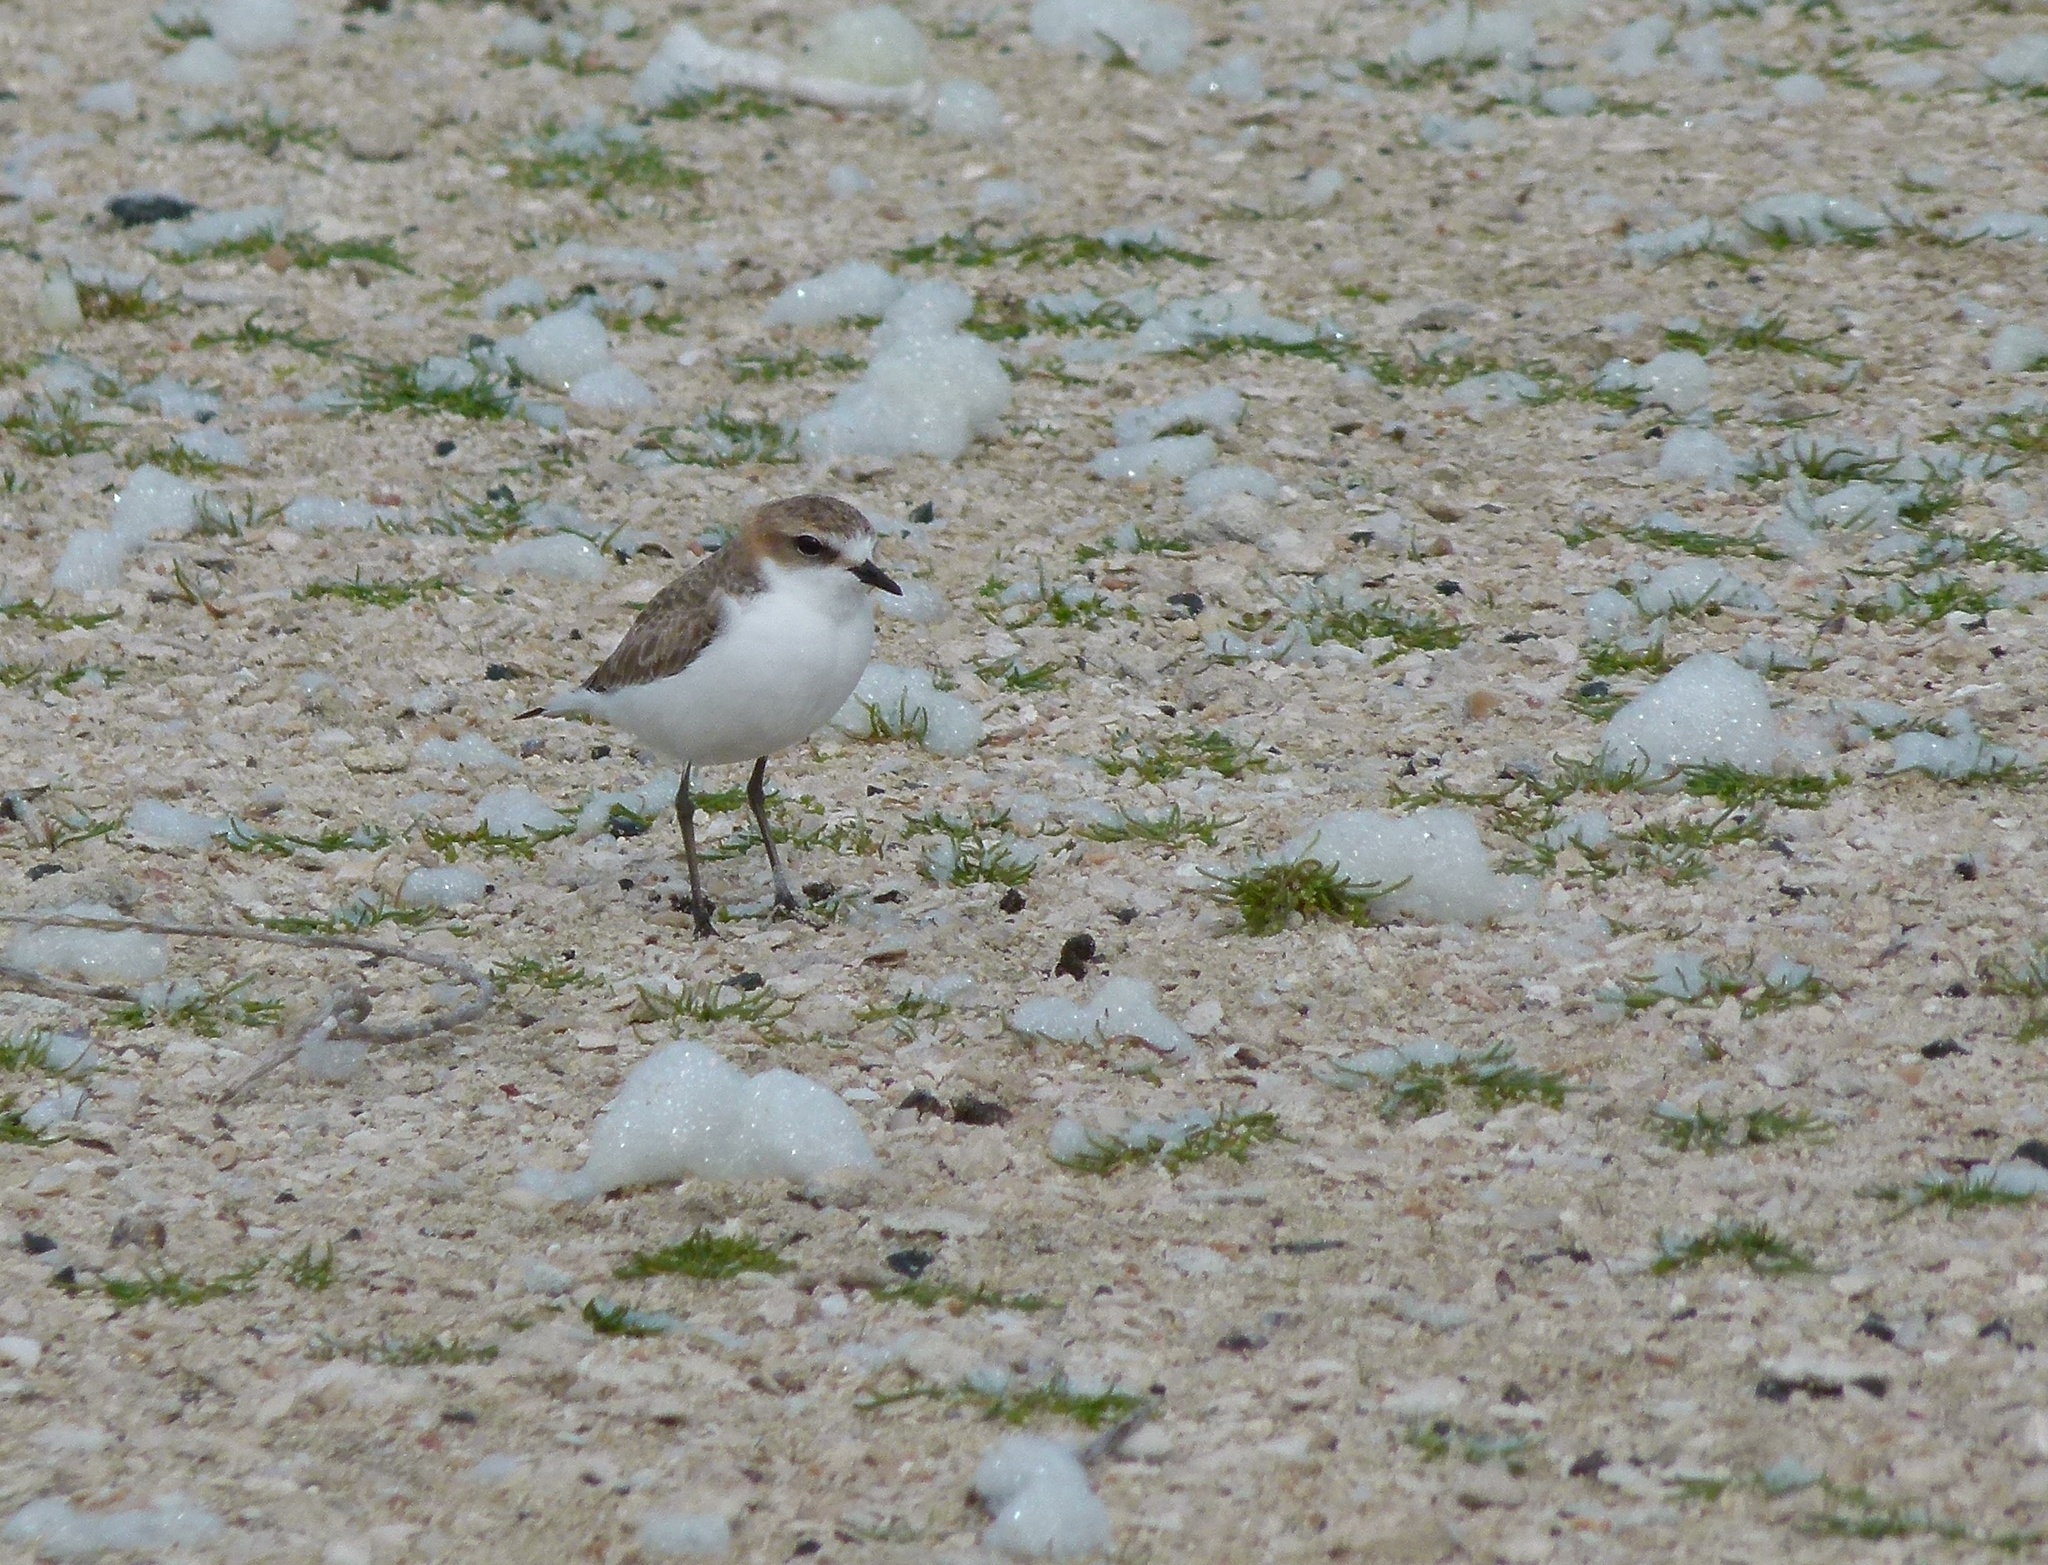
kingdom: Animalia
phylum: Chordata
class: Aves
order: Charadriiformes
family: Charadriidae
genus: Anarhynchus
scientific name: Anarhynchus
